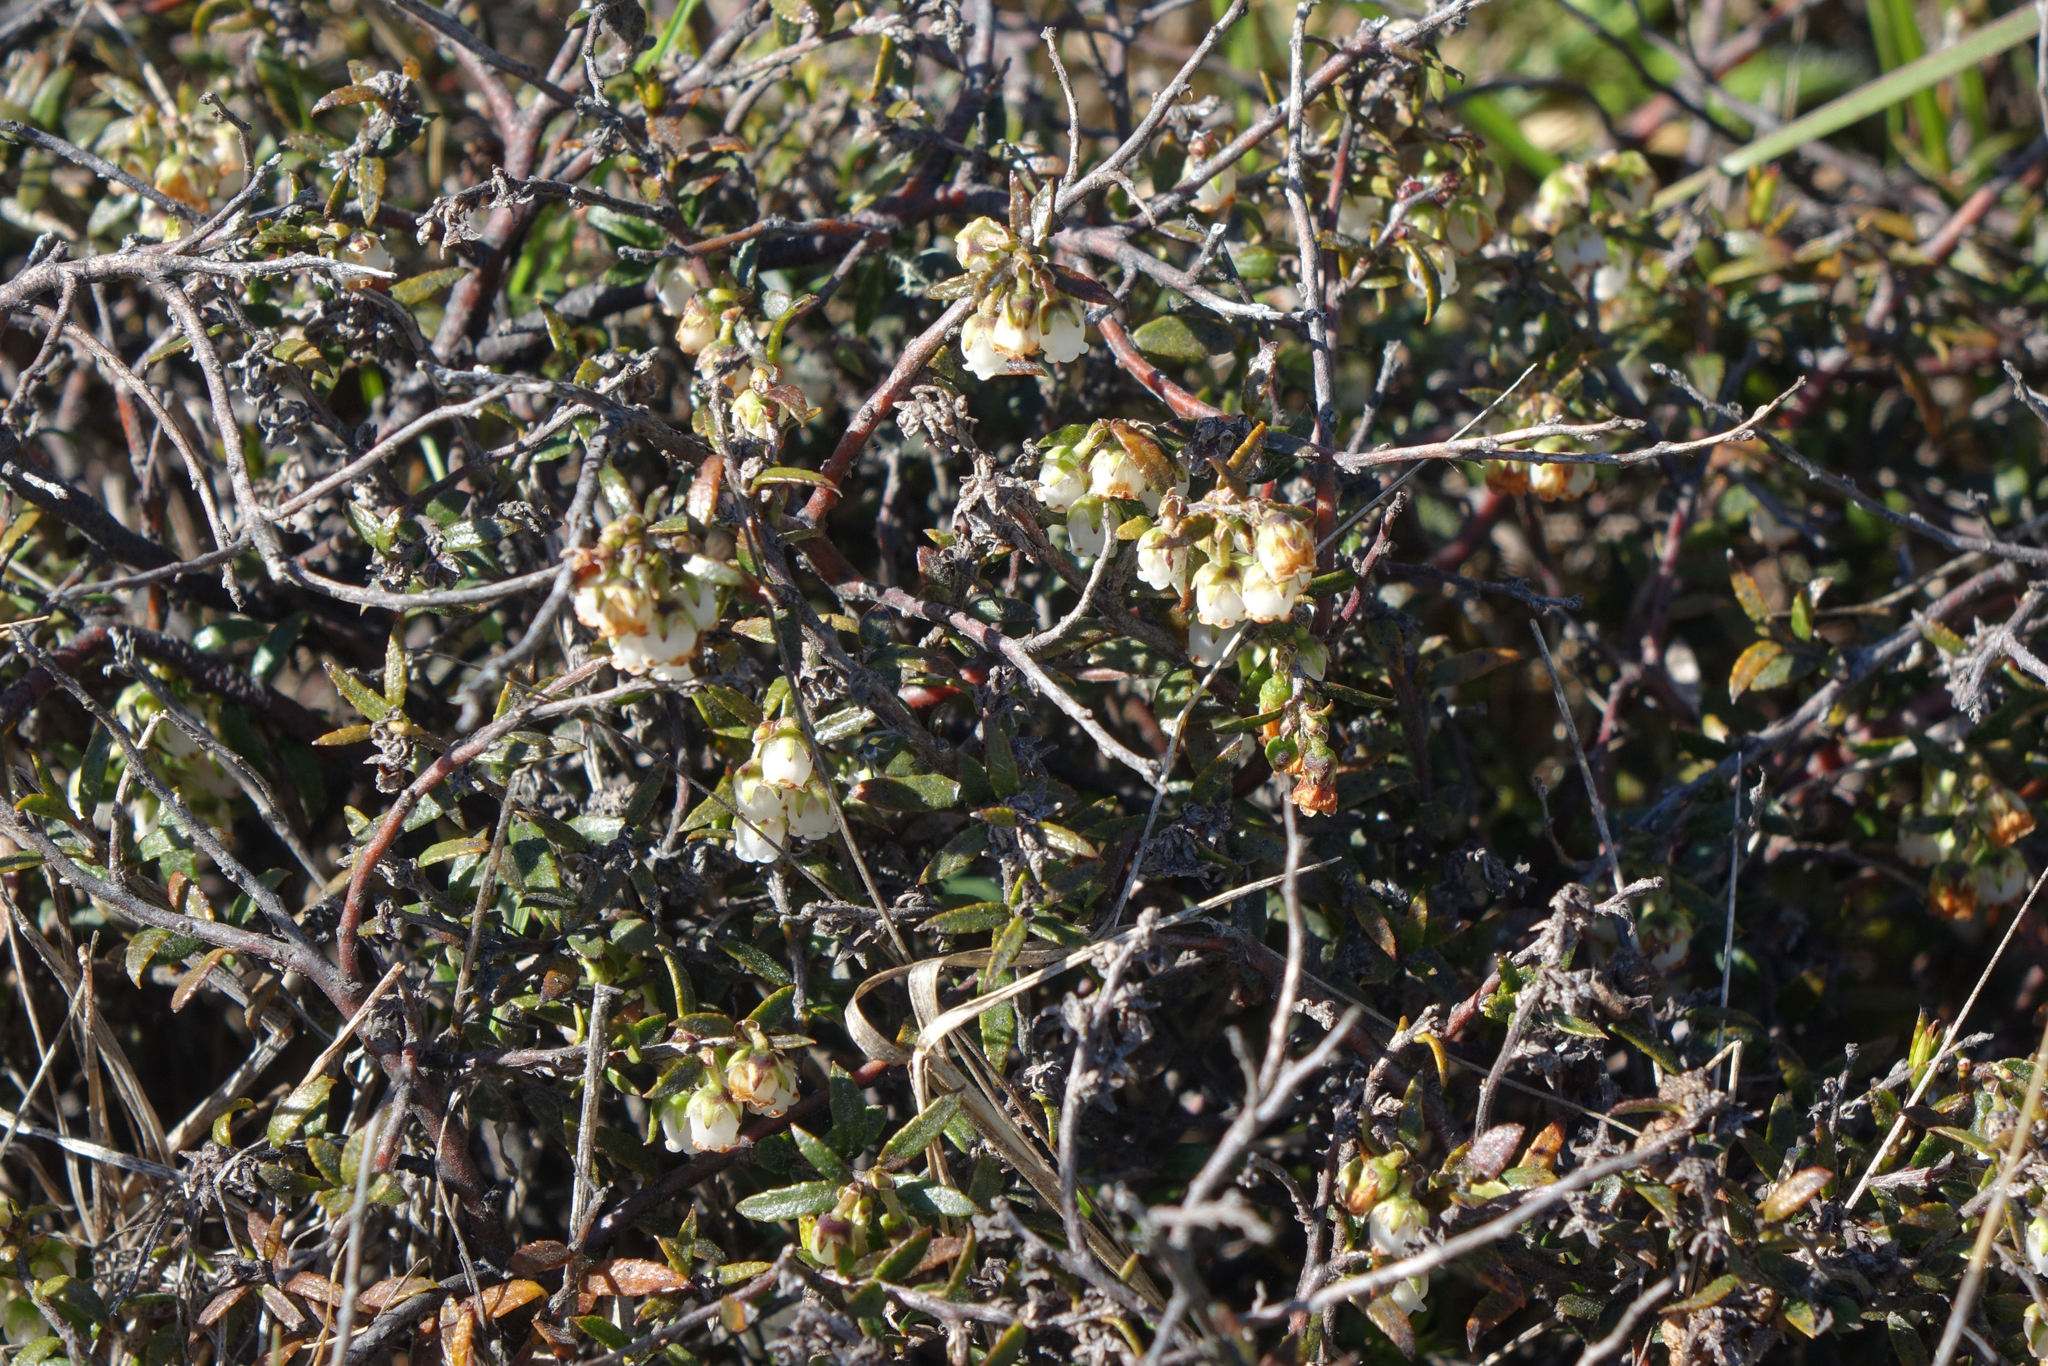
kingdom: Plantae
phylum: Tracheophyta
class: Magnoliopsida
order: Ericales
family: Ericaceae
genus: Gaultheria
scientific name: Gaultheria macrostigma
